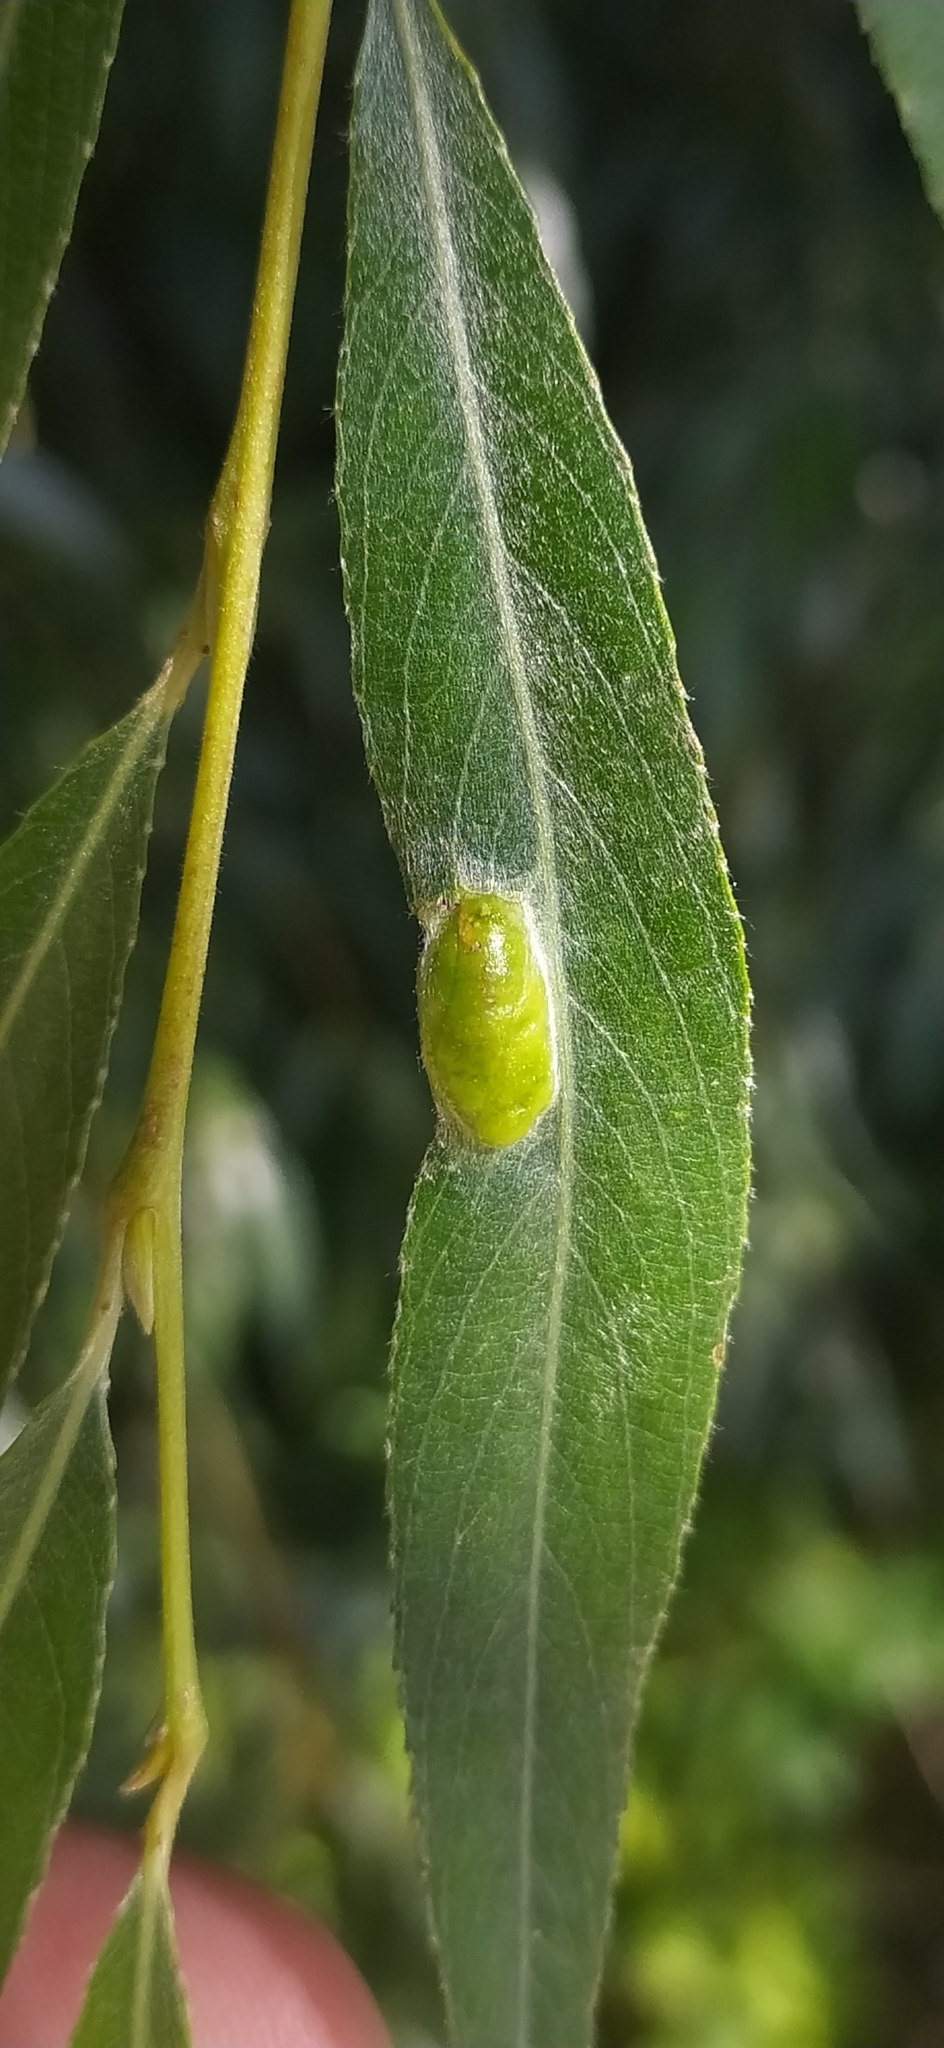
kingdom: Animalia
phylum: Arthropoda
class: Insecta
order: Hymenoptera
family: Tenthredinidae
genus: Pontania
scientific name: Pontania proxima
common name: Common sawfly
